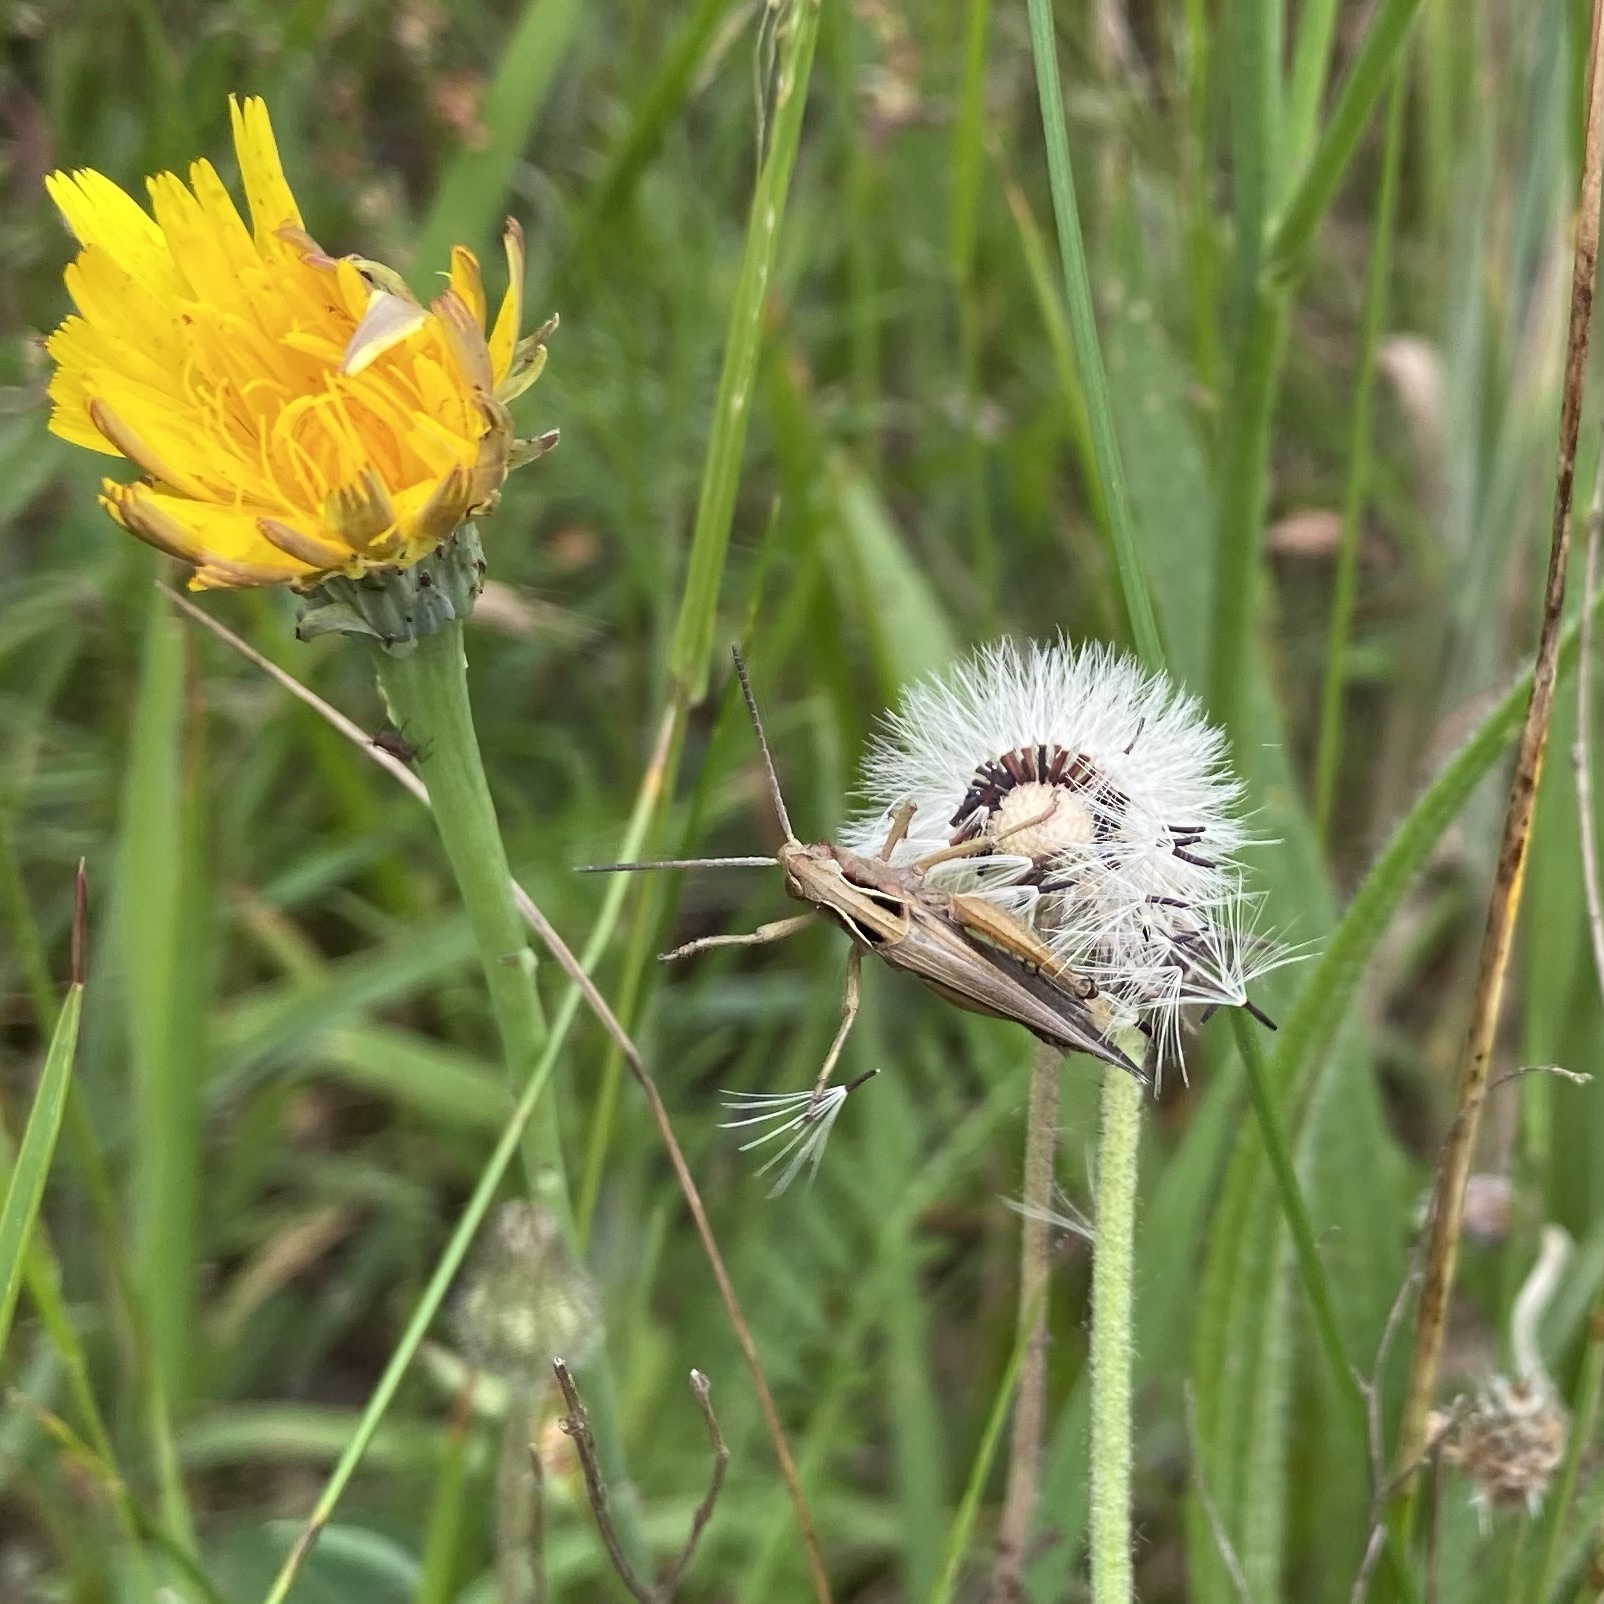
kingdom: Animalia
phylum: Arthropoda
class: Insecta
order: Orthoptera
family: Acrididae
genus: Omocestus
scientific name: Omocestus viridulus
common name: Common green grasshopper
